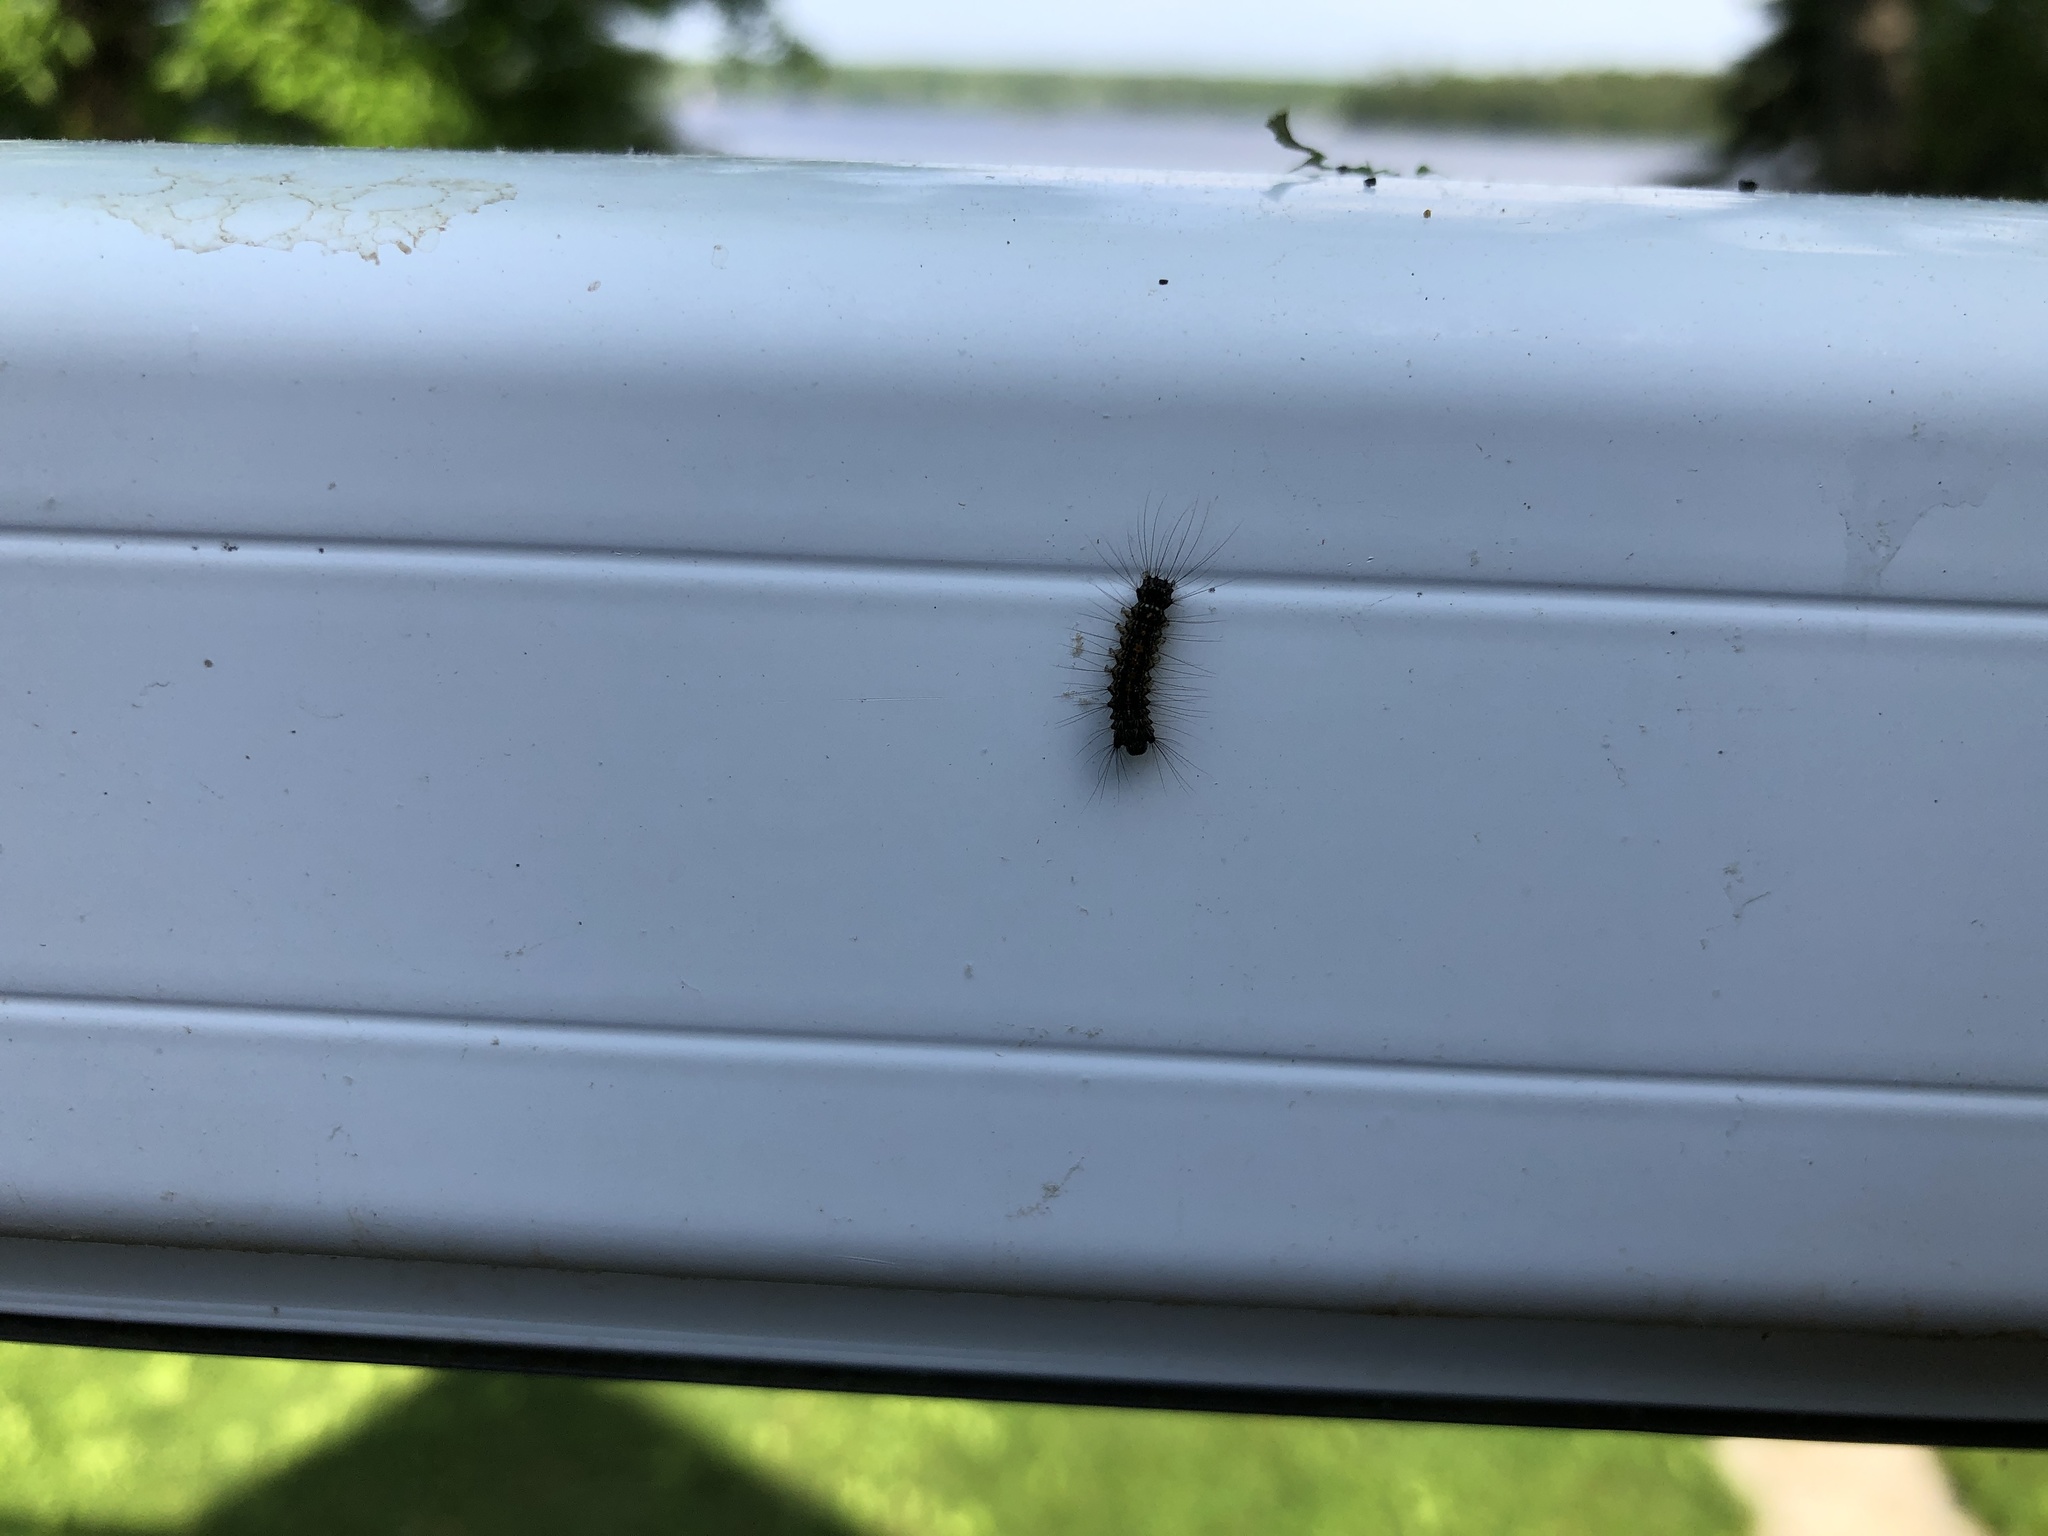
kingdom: Animalia
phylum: Arthropoda
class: Insecta
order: Lepidoptera
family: Erebidae
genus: Lymantria
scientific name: Lymantria dispar
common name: Gypsy moth
